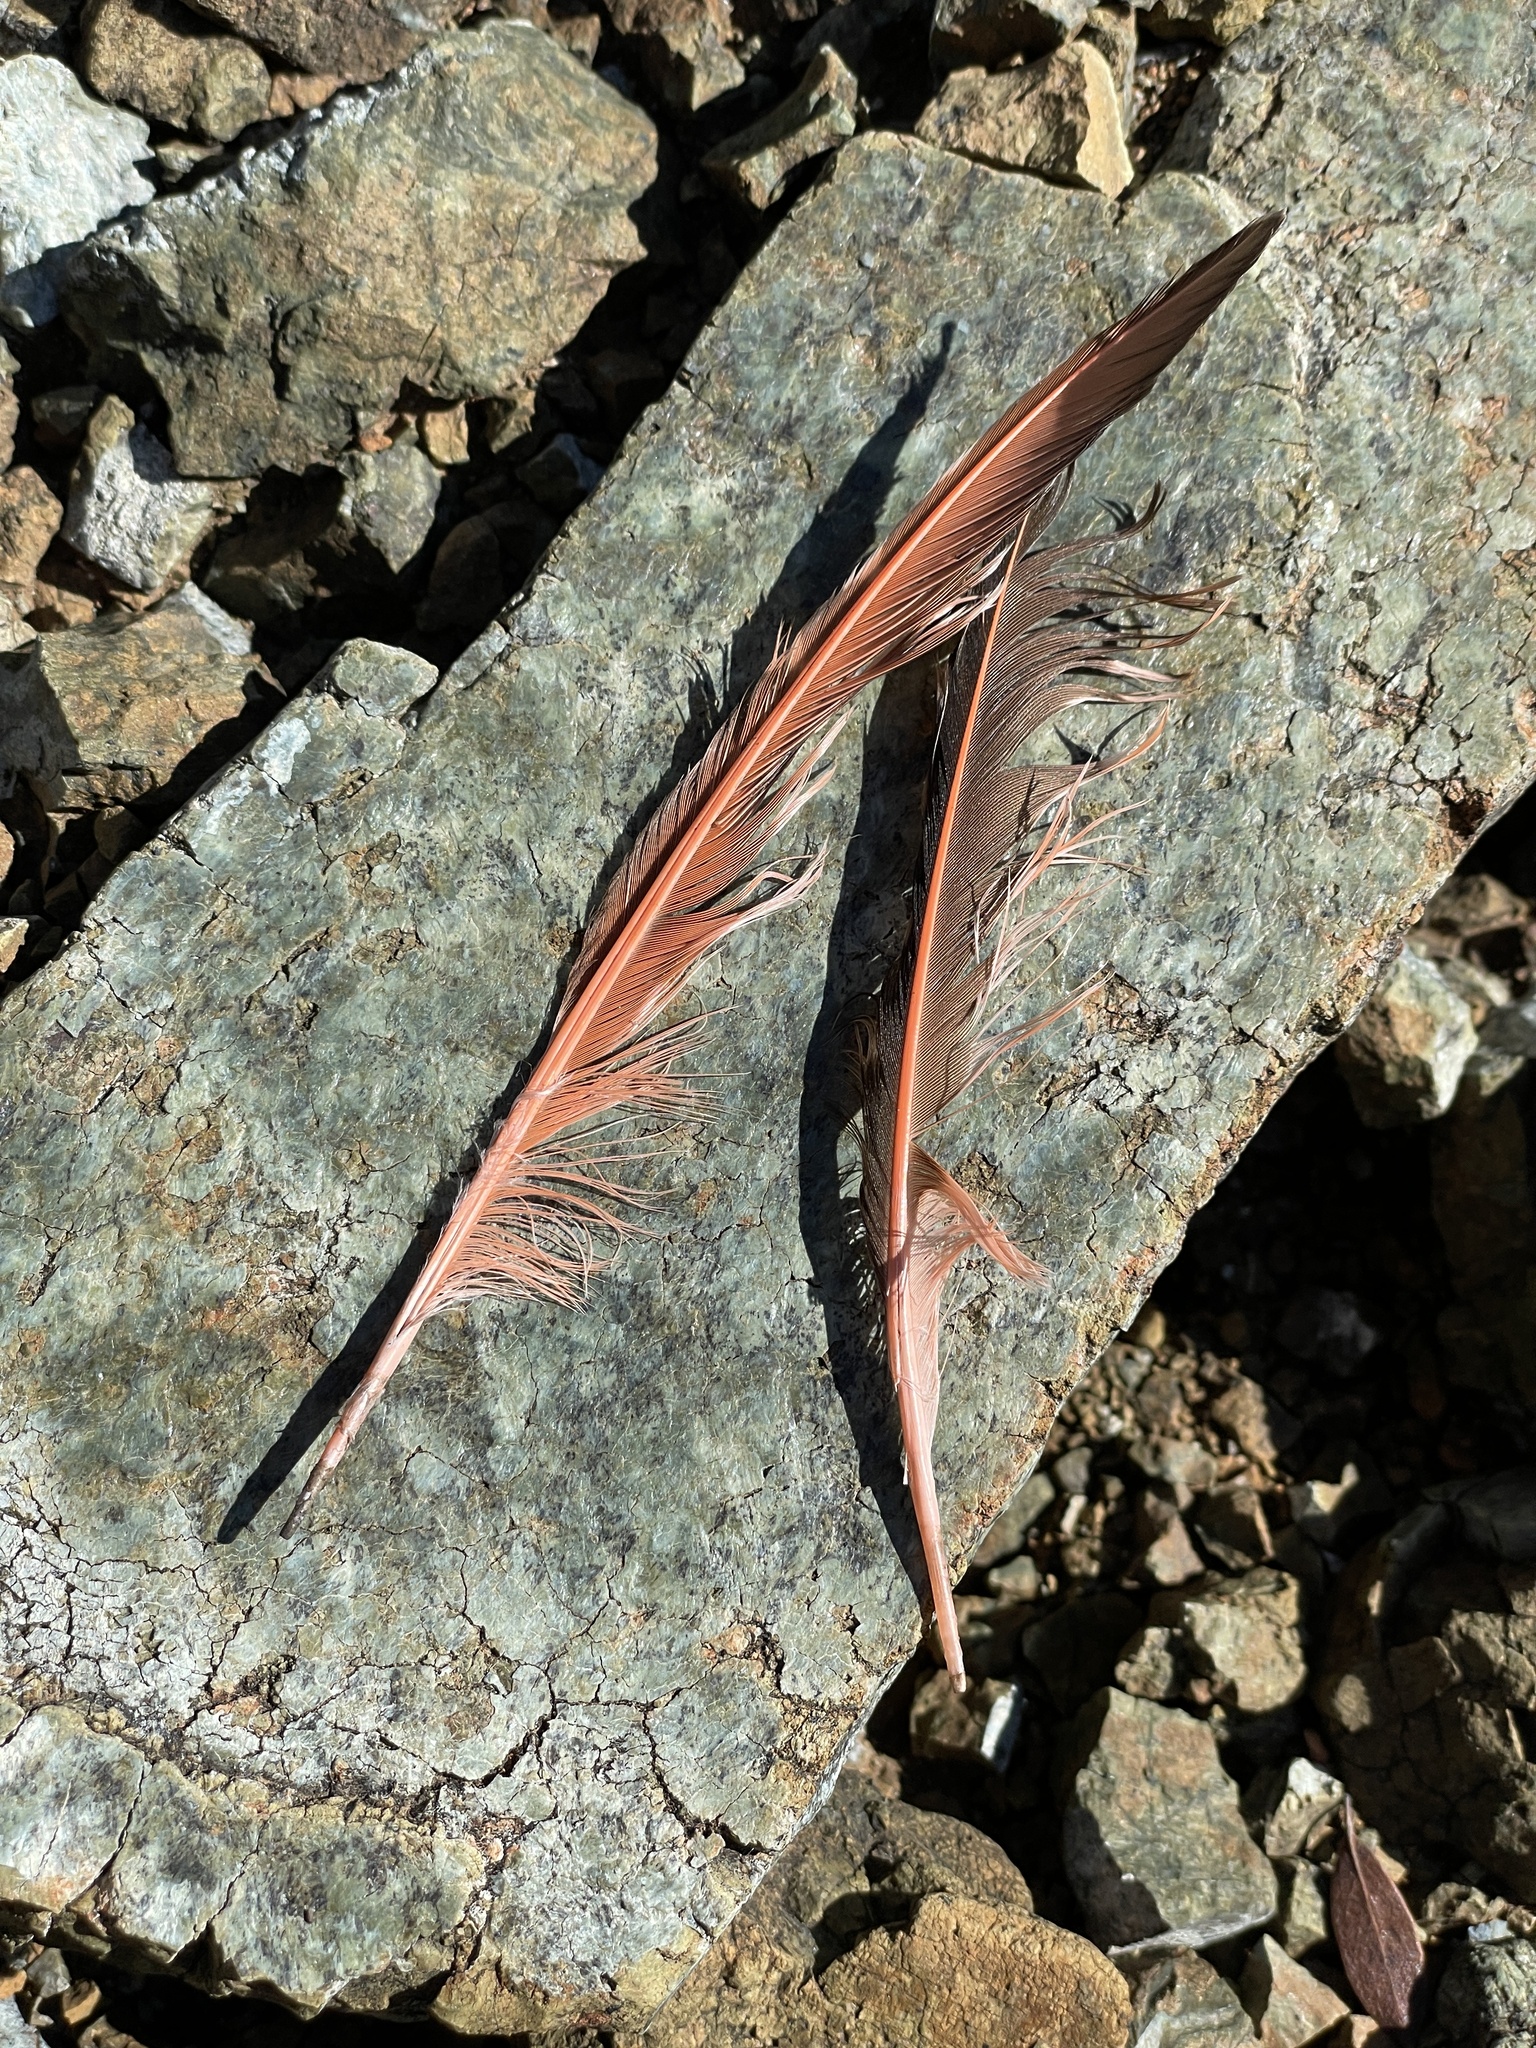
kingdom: Animalia
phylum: Chordata
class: Aves
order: Piciformes
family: Picidae
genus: Colaptes
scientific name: Colaptes auratus
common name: Northern flicker
